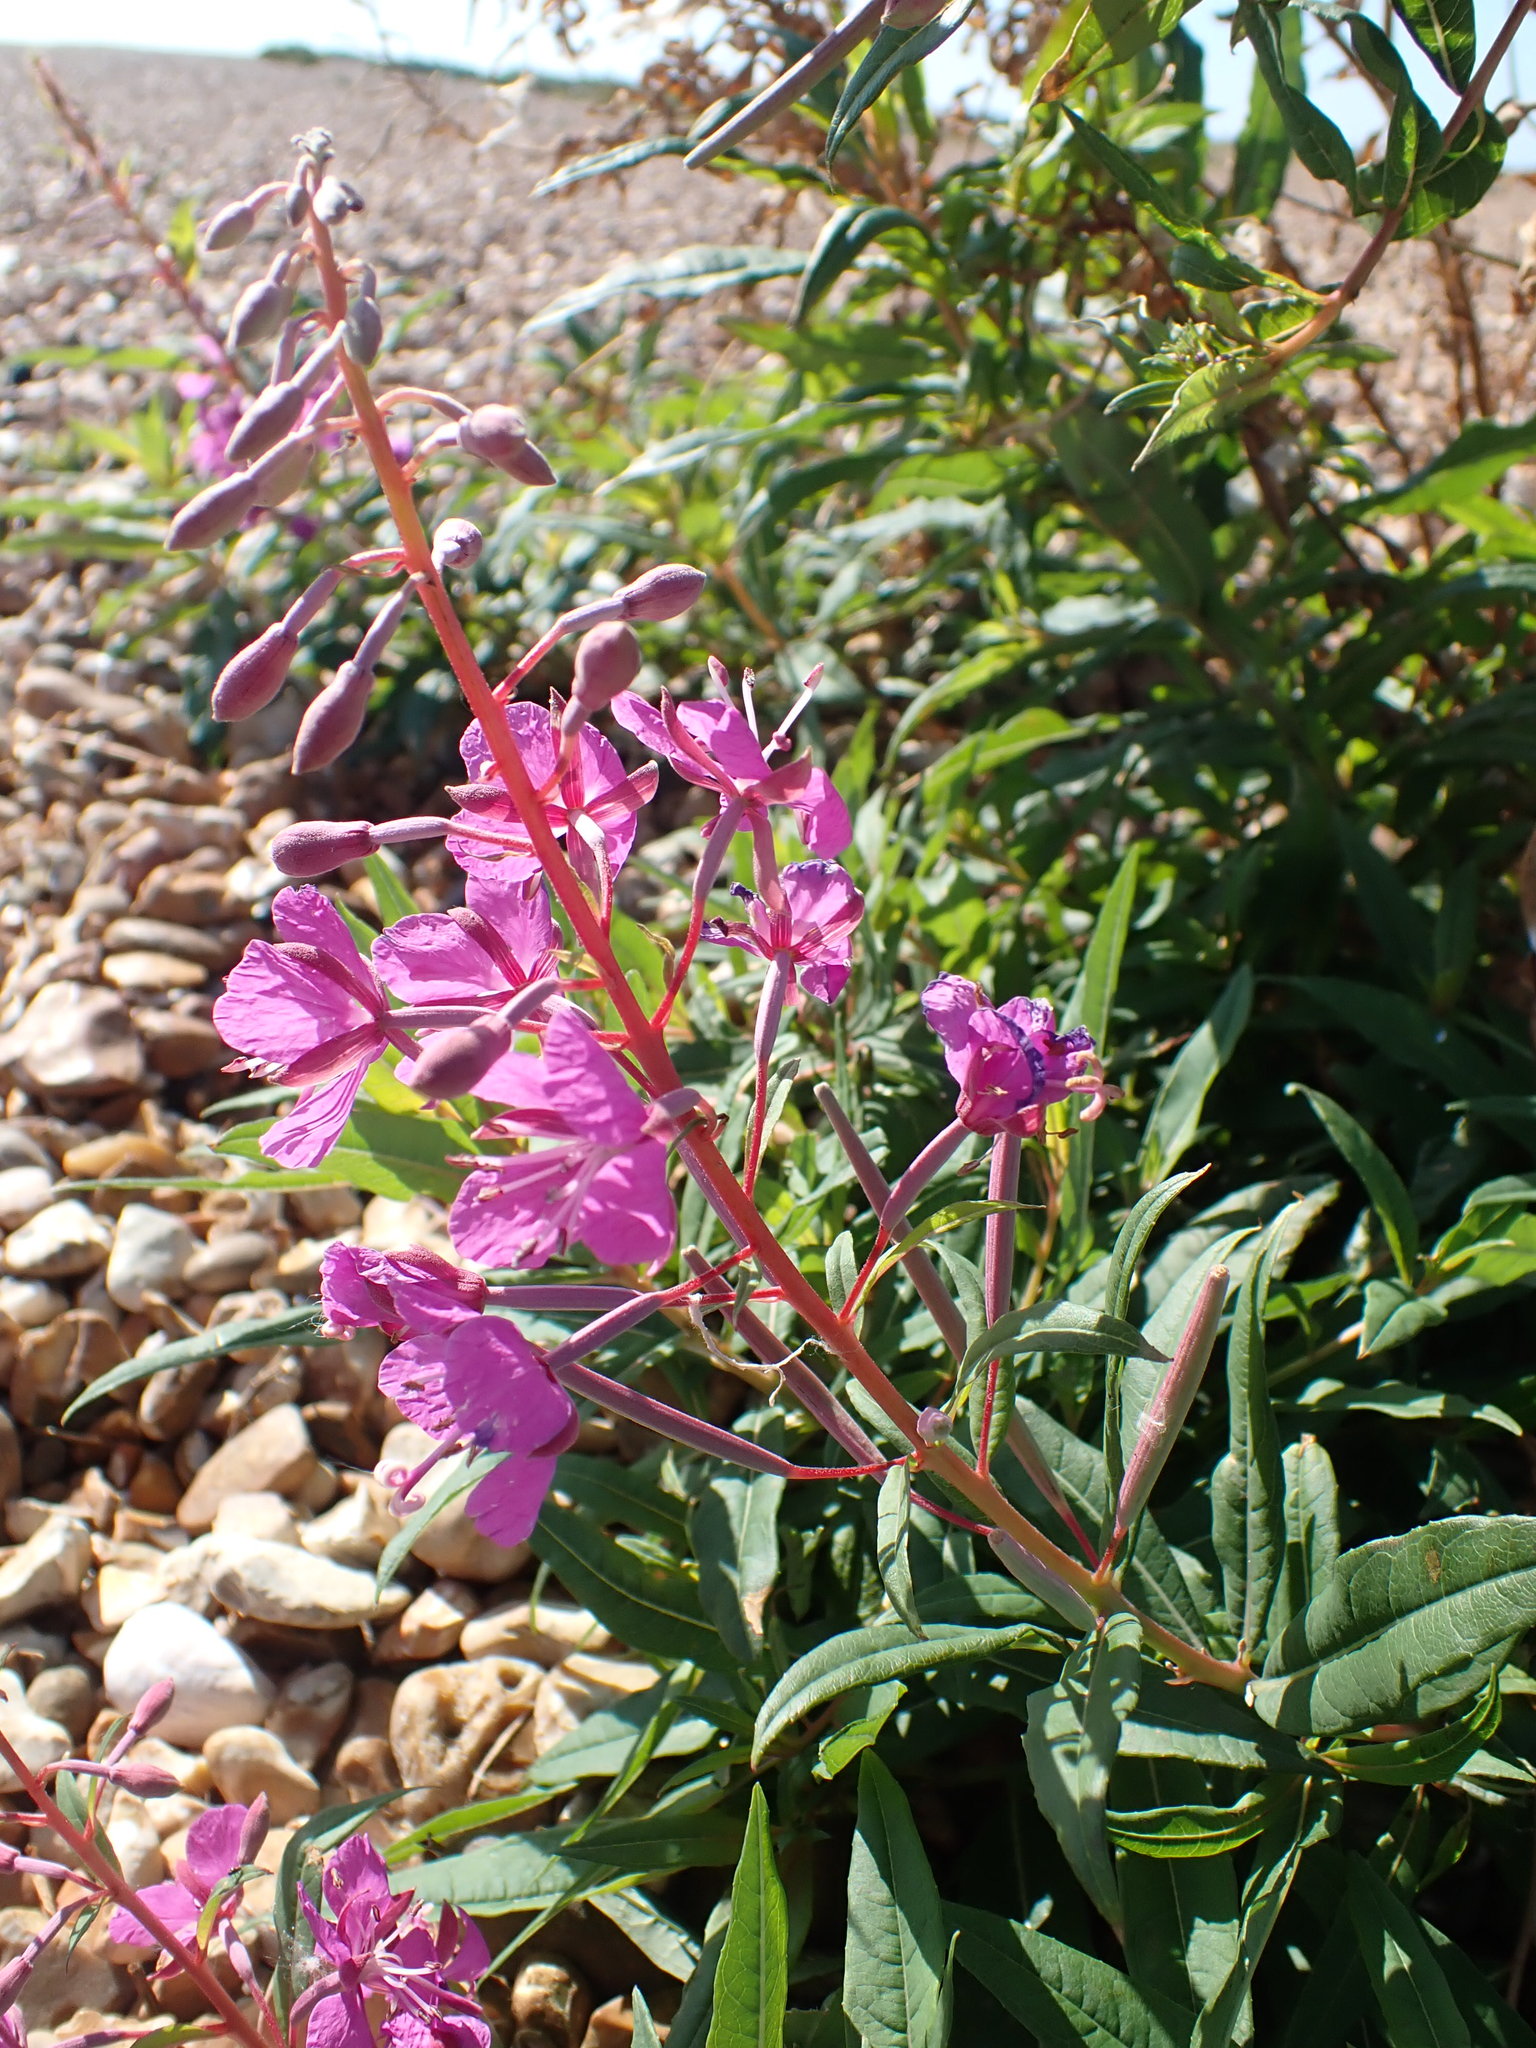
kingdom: Plantae
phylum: Tracheophyta
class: Magnoliopsida
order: Myrtales
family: Onagraceae
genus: Chamaenerion
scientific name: Chamaenerion angustifolium
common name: Fireweed
